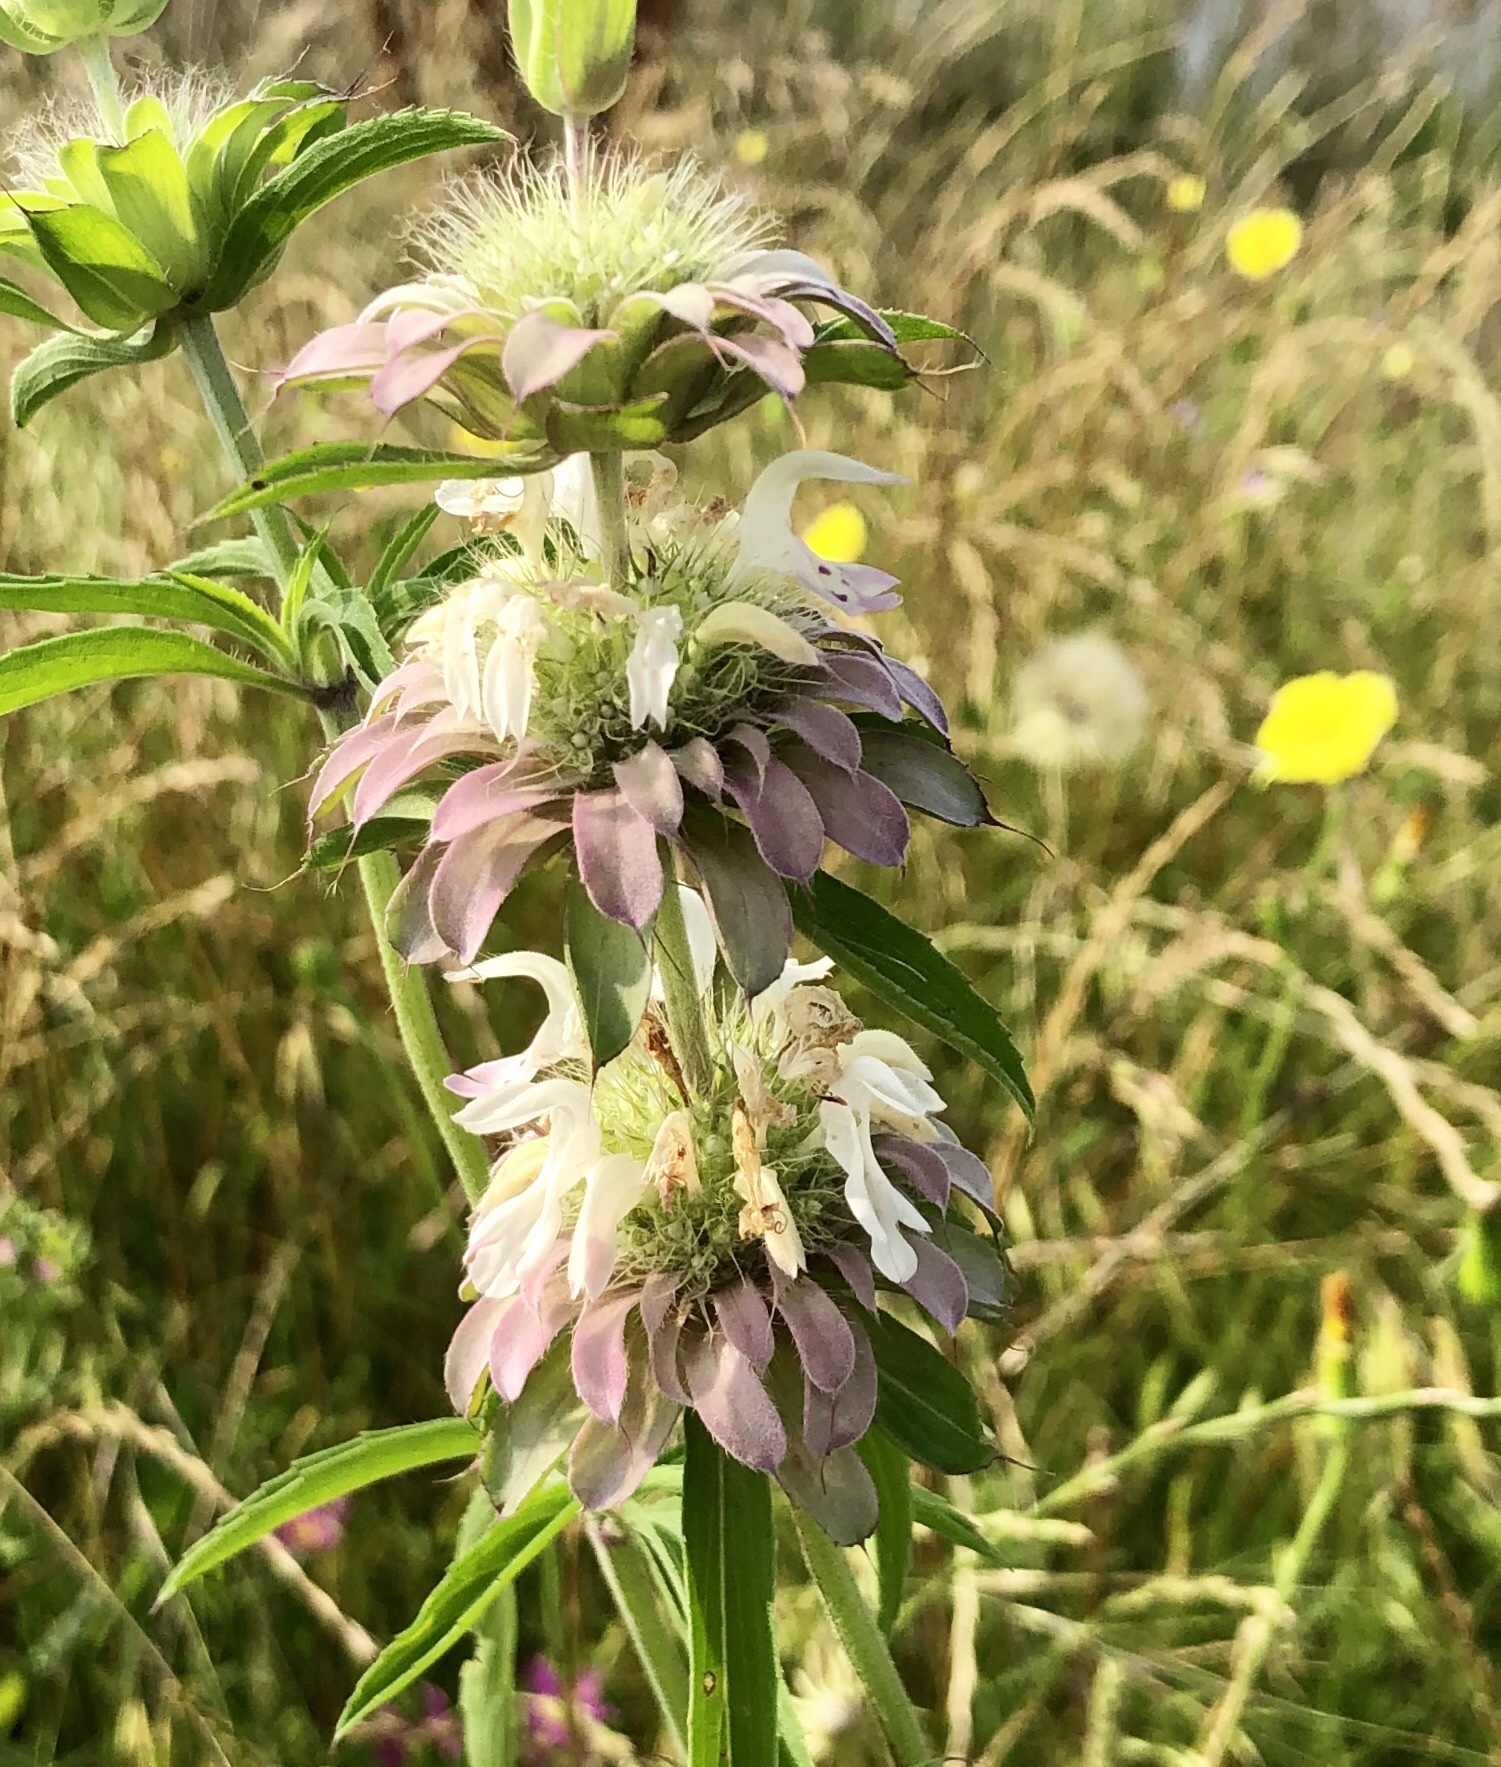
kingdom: Plantae
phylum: Tracheophyta
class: Magnoliopsida
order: Lamiales
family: Lamiaceae
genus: Monarda
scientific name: Monarda citriodora
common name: Lemon beebalm
